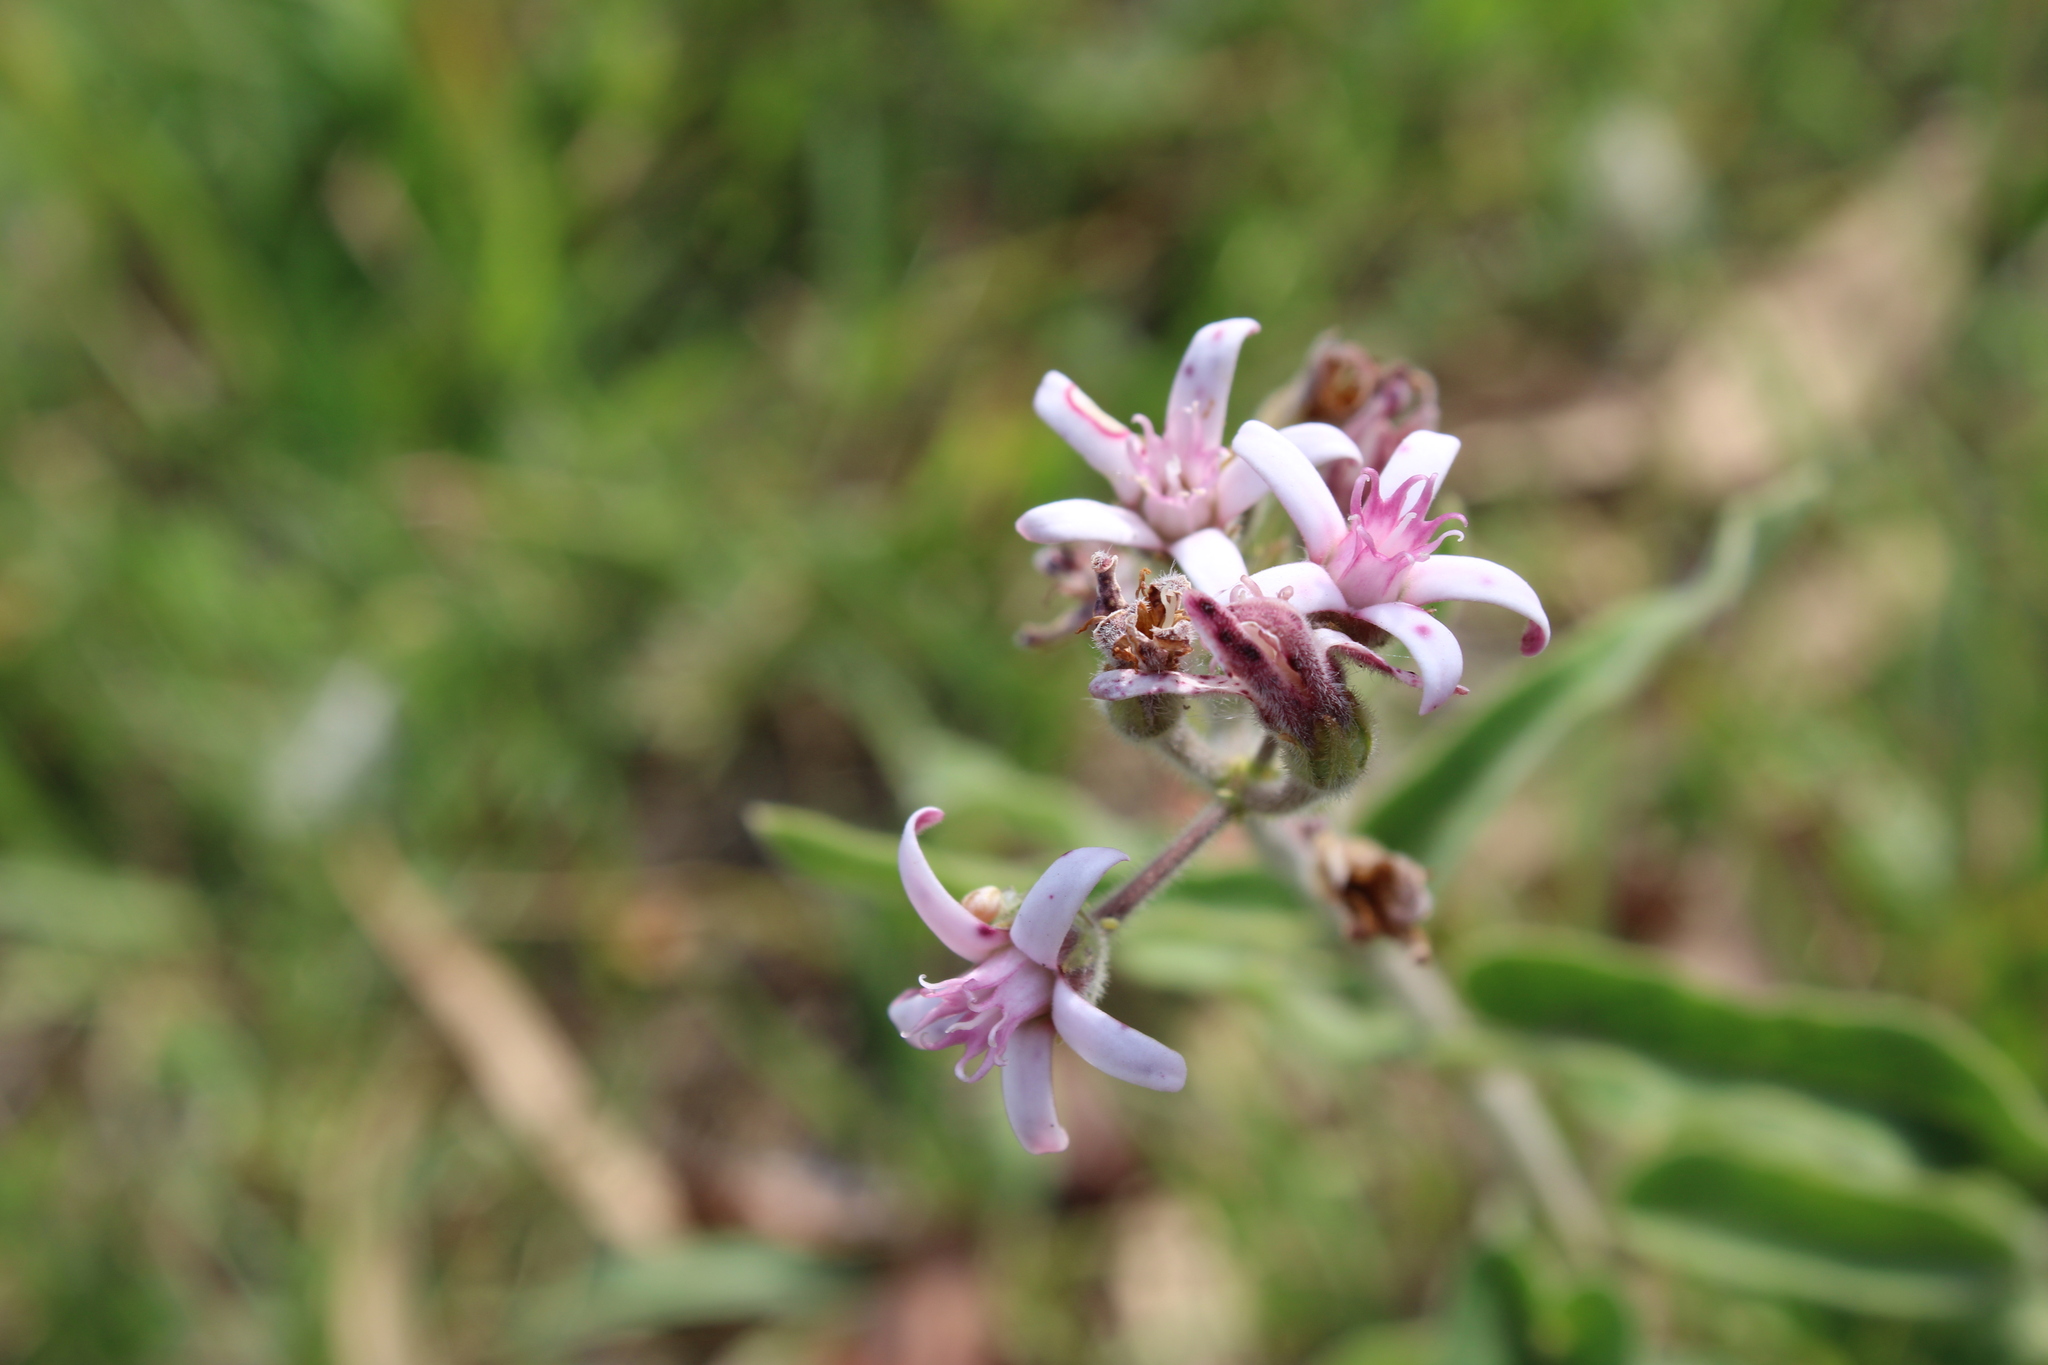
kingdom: Plantae
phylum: Tracheophyta
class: Magnoliopsida
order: Gentianales
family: Apocynaceae
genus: Oxypetalum
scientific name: Oxypetalum solanoides
